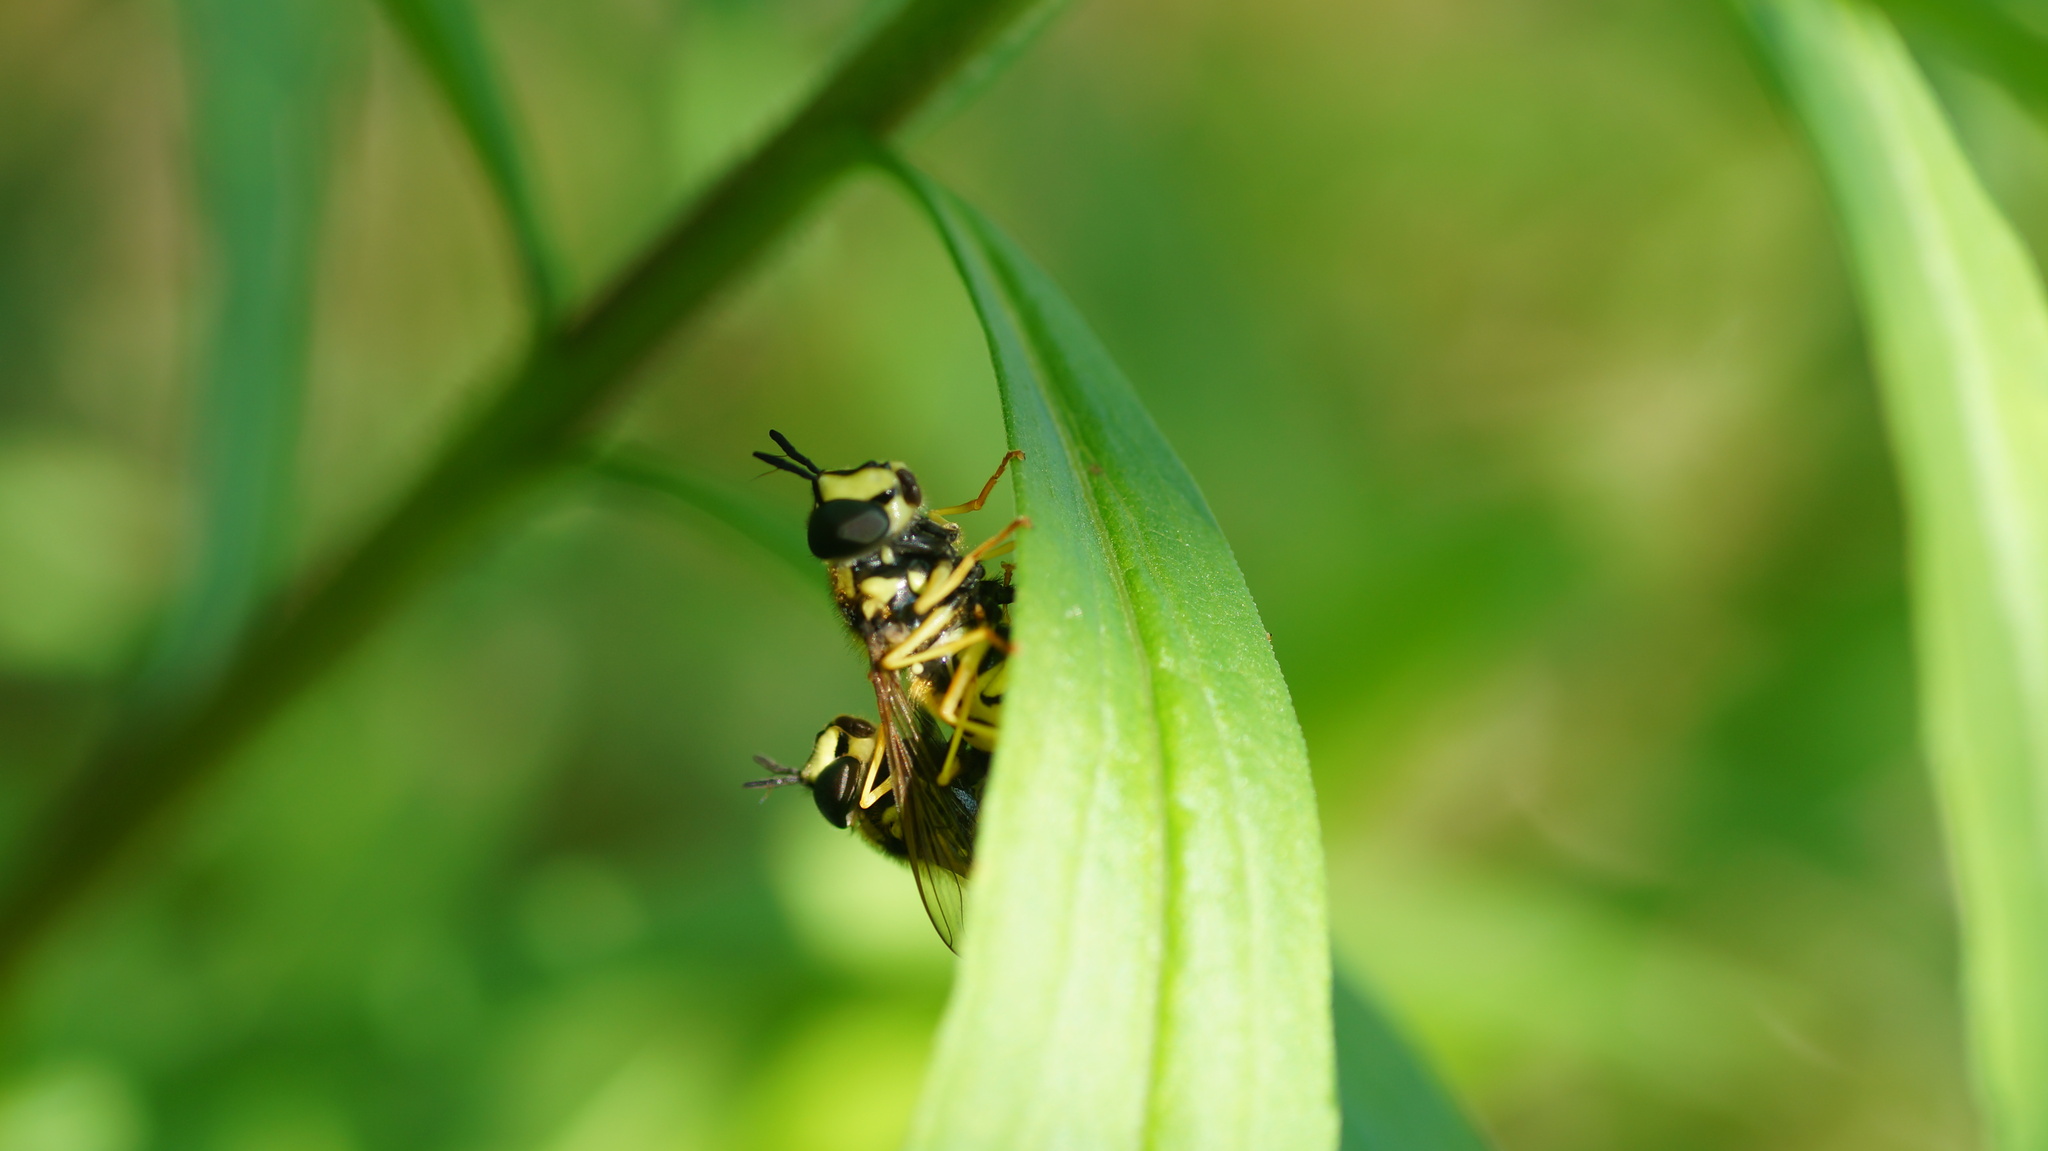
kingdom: Animalia
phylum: Arthropoda
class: Insecta
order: Diptera
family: Syrphidae
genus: Chrysotoxum
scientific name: Chrysotoxum
